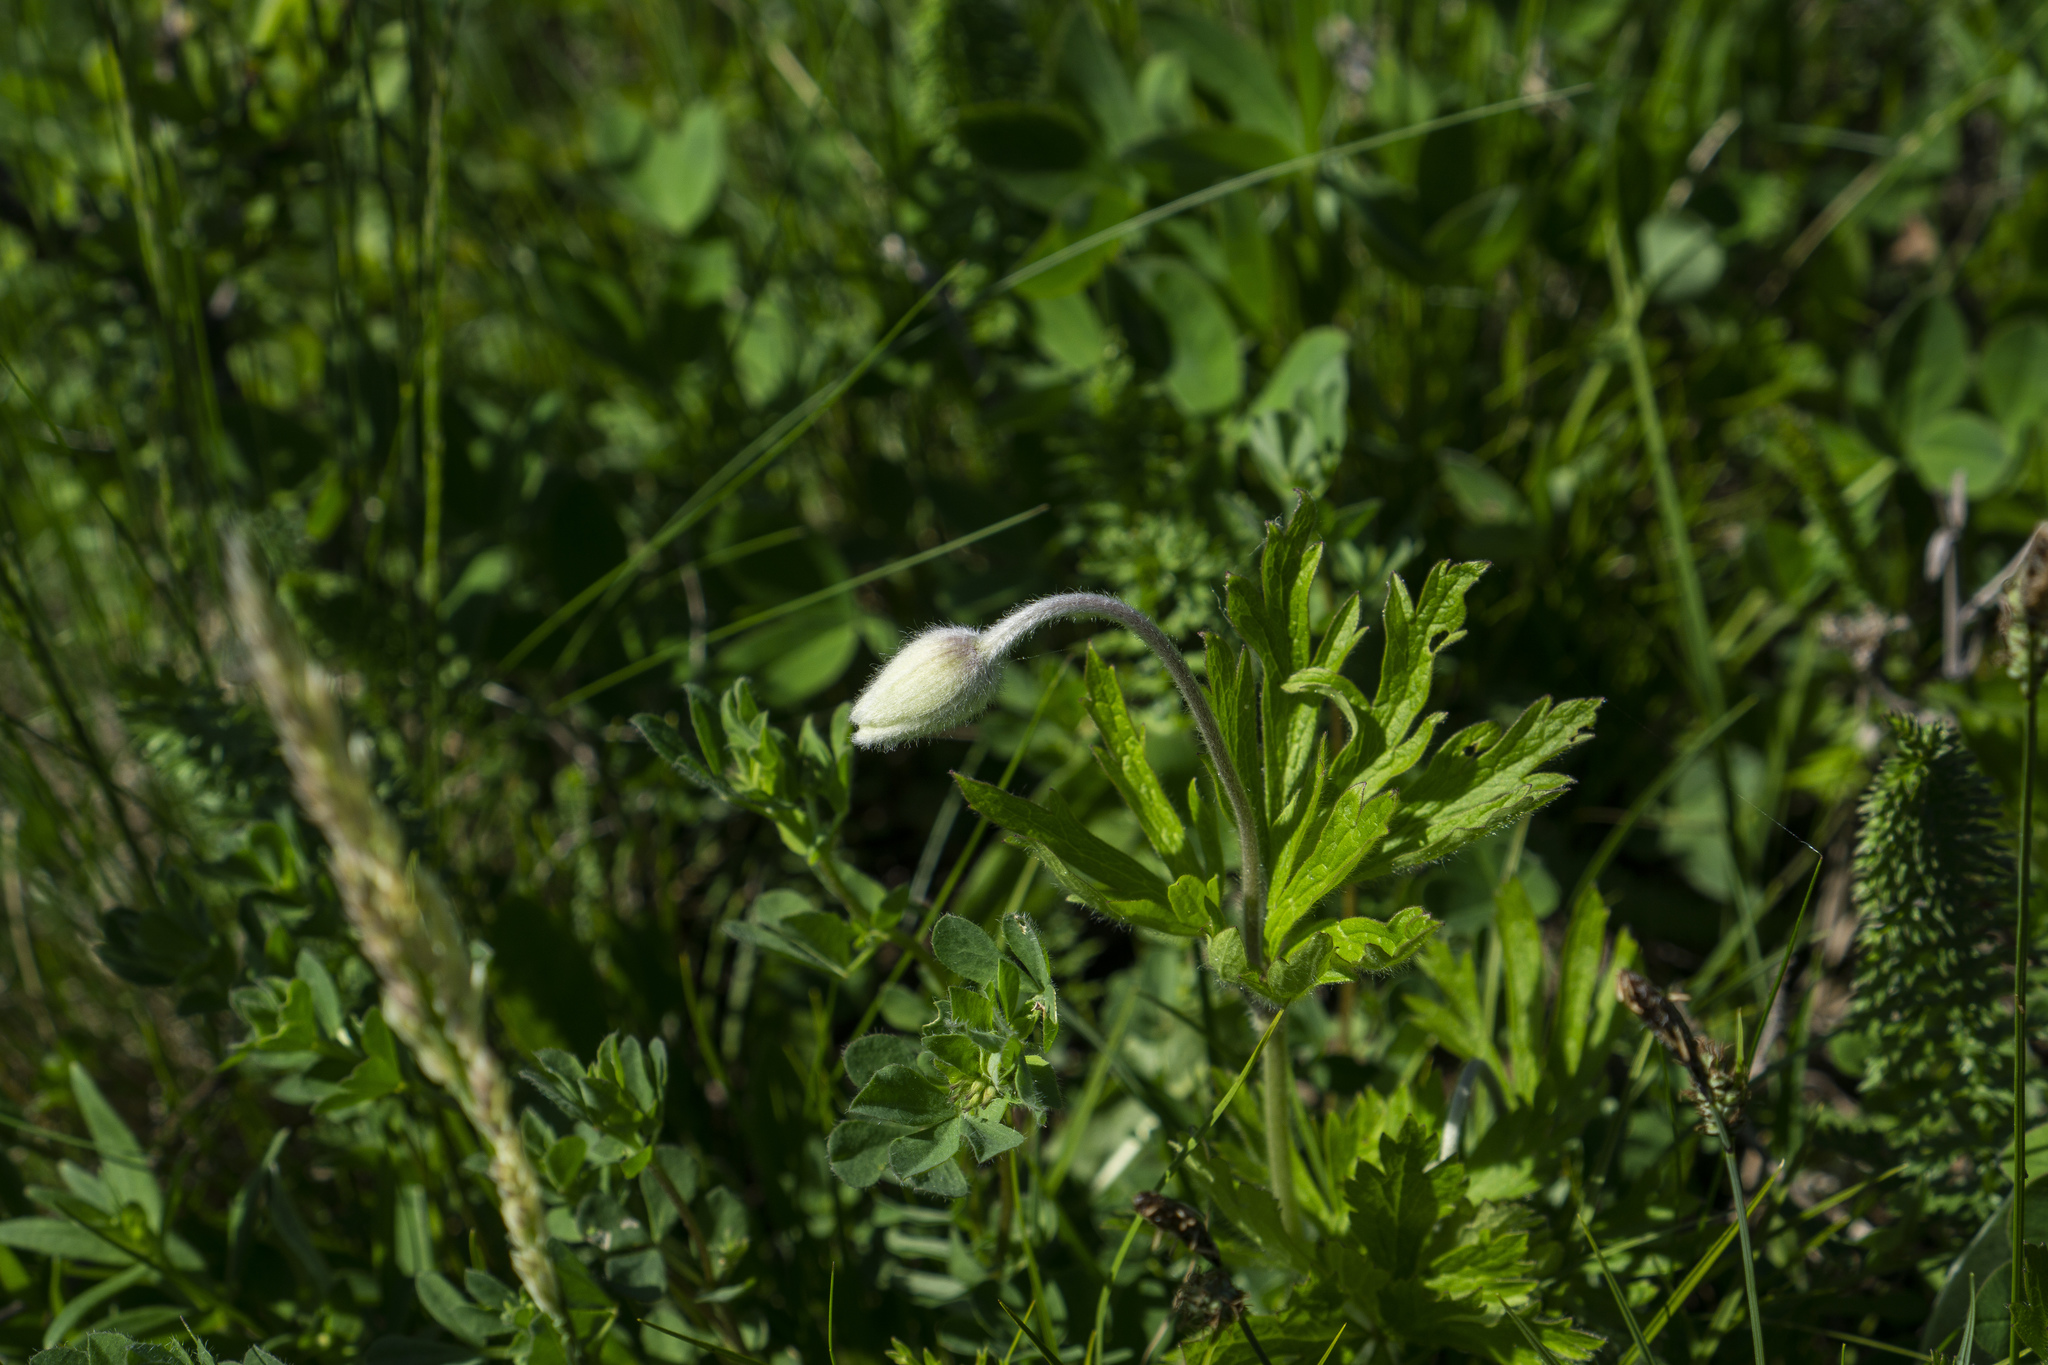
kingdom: Plantae
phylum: Tracheophyta
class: Magnoliopsida
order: Ranunculales
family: Ranunculaceae
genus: Anemone
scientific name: Anemone sylvestris
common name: Snowdrop anemone
